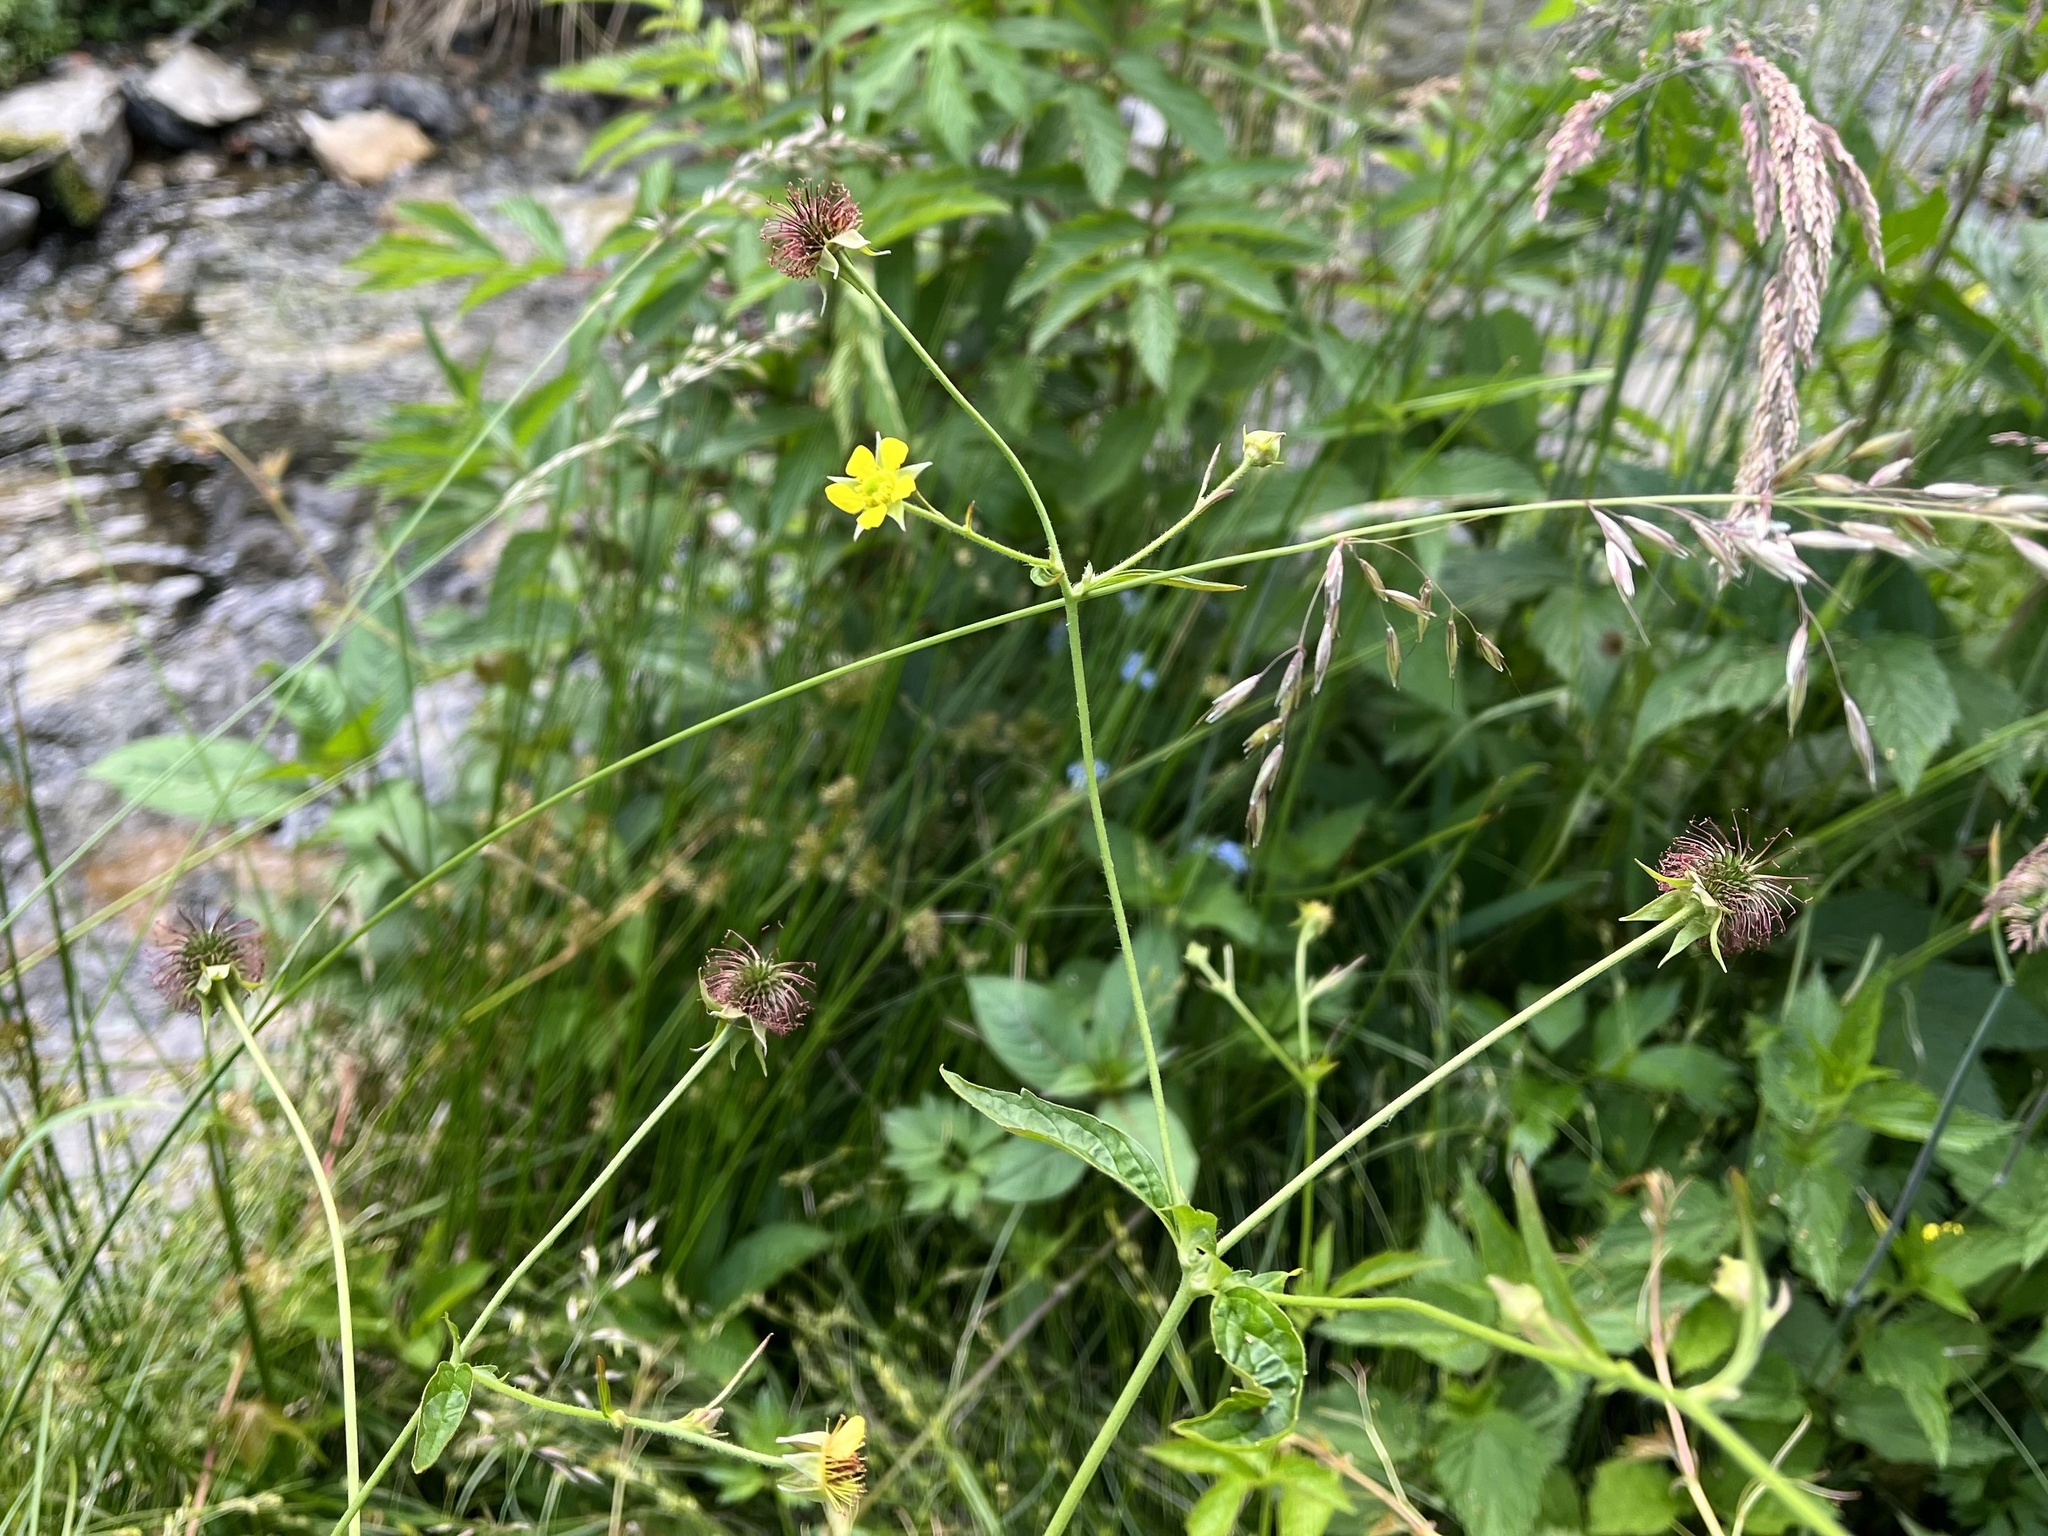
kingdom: Plantae
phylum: Tracheophyta
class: Magnoliopsida
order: Rosales
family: Rosaceae
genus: Geum
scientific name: Geum urbanum
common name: Wood avens
